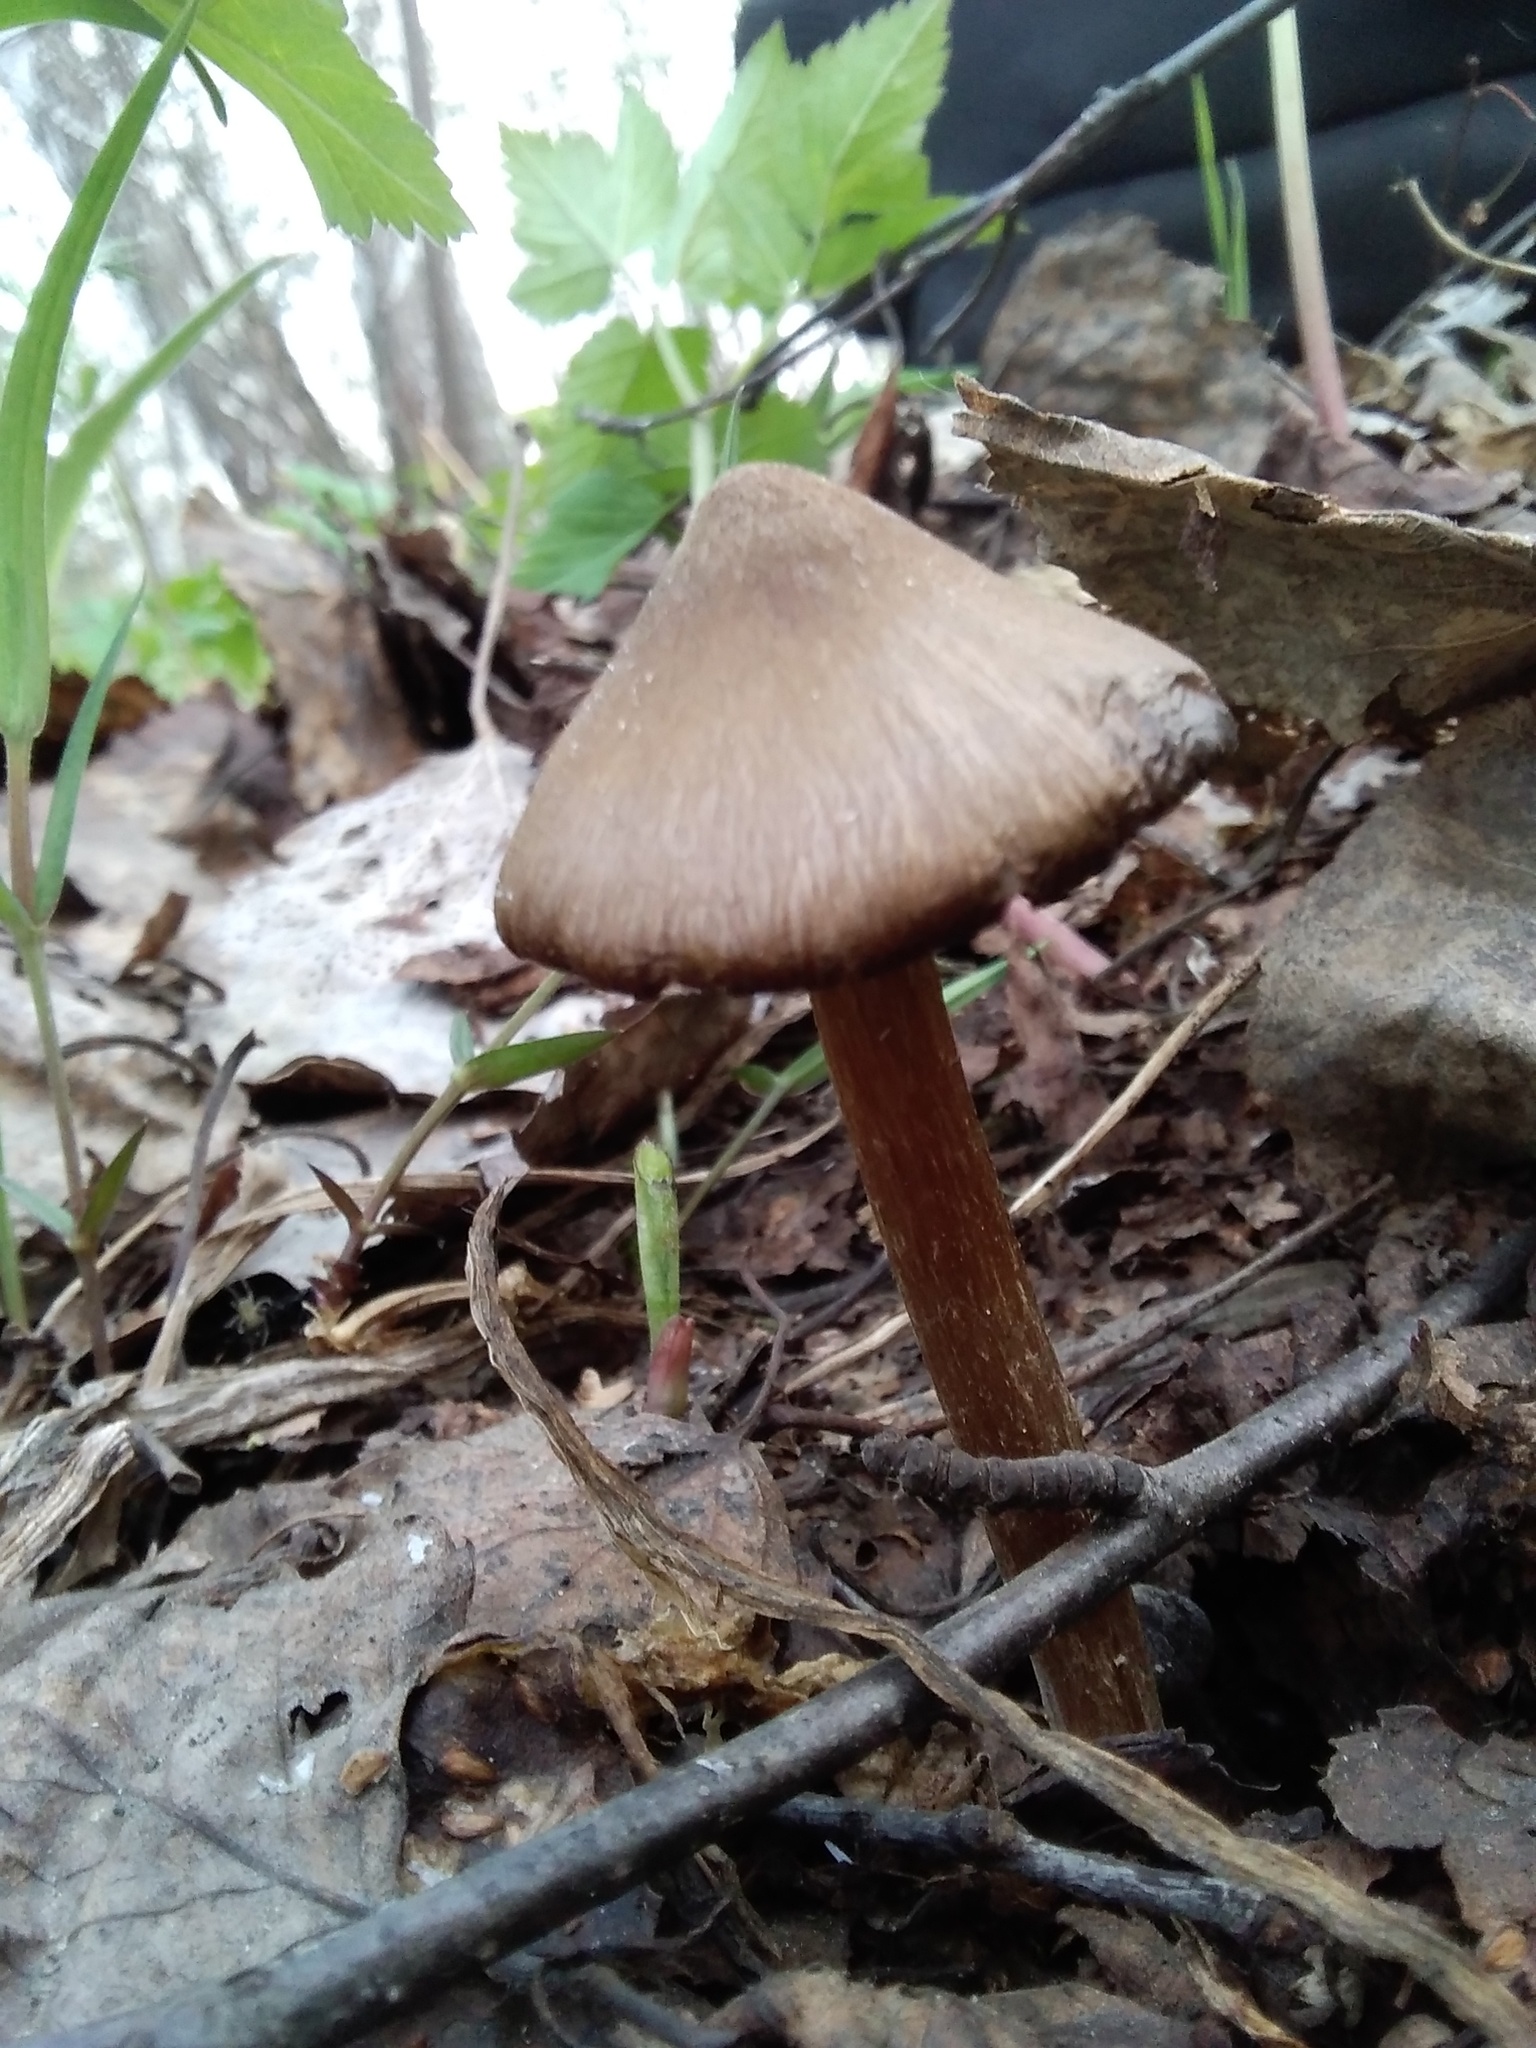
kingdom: Fungi
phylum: Basidiomycota
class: Agaricomycetes
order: Agaricales
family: Entolomataceae
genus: Entoloma
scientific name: Entoloma vernum
